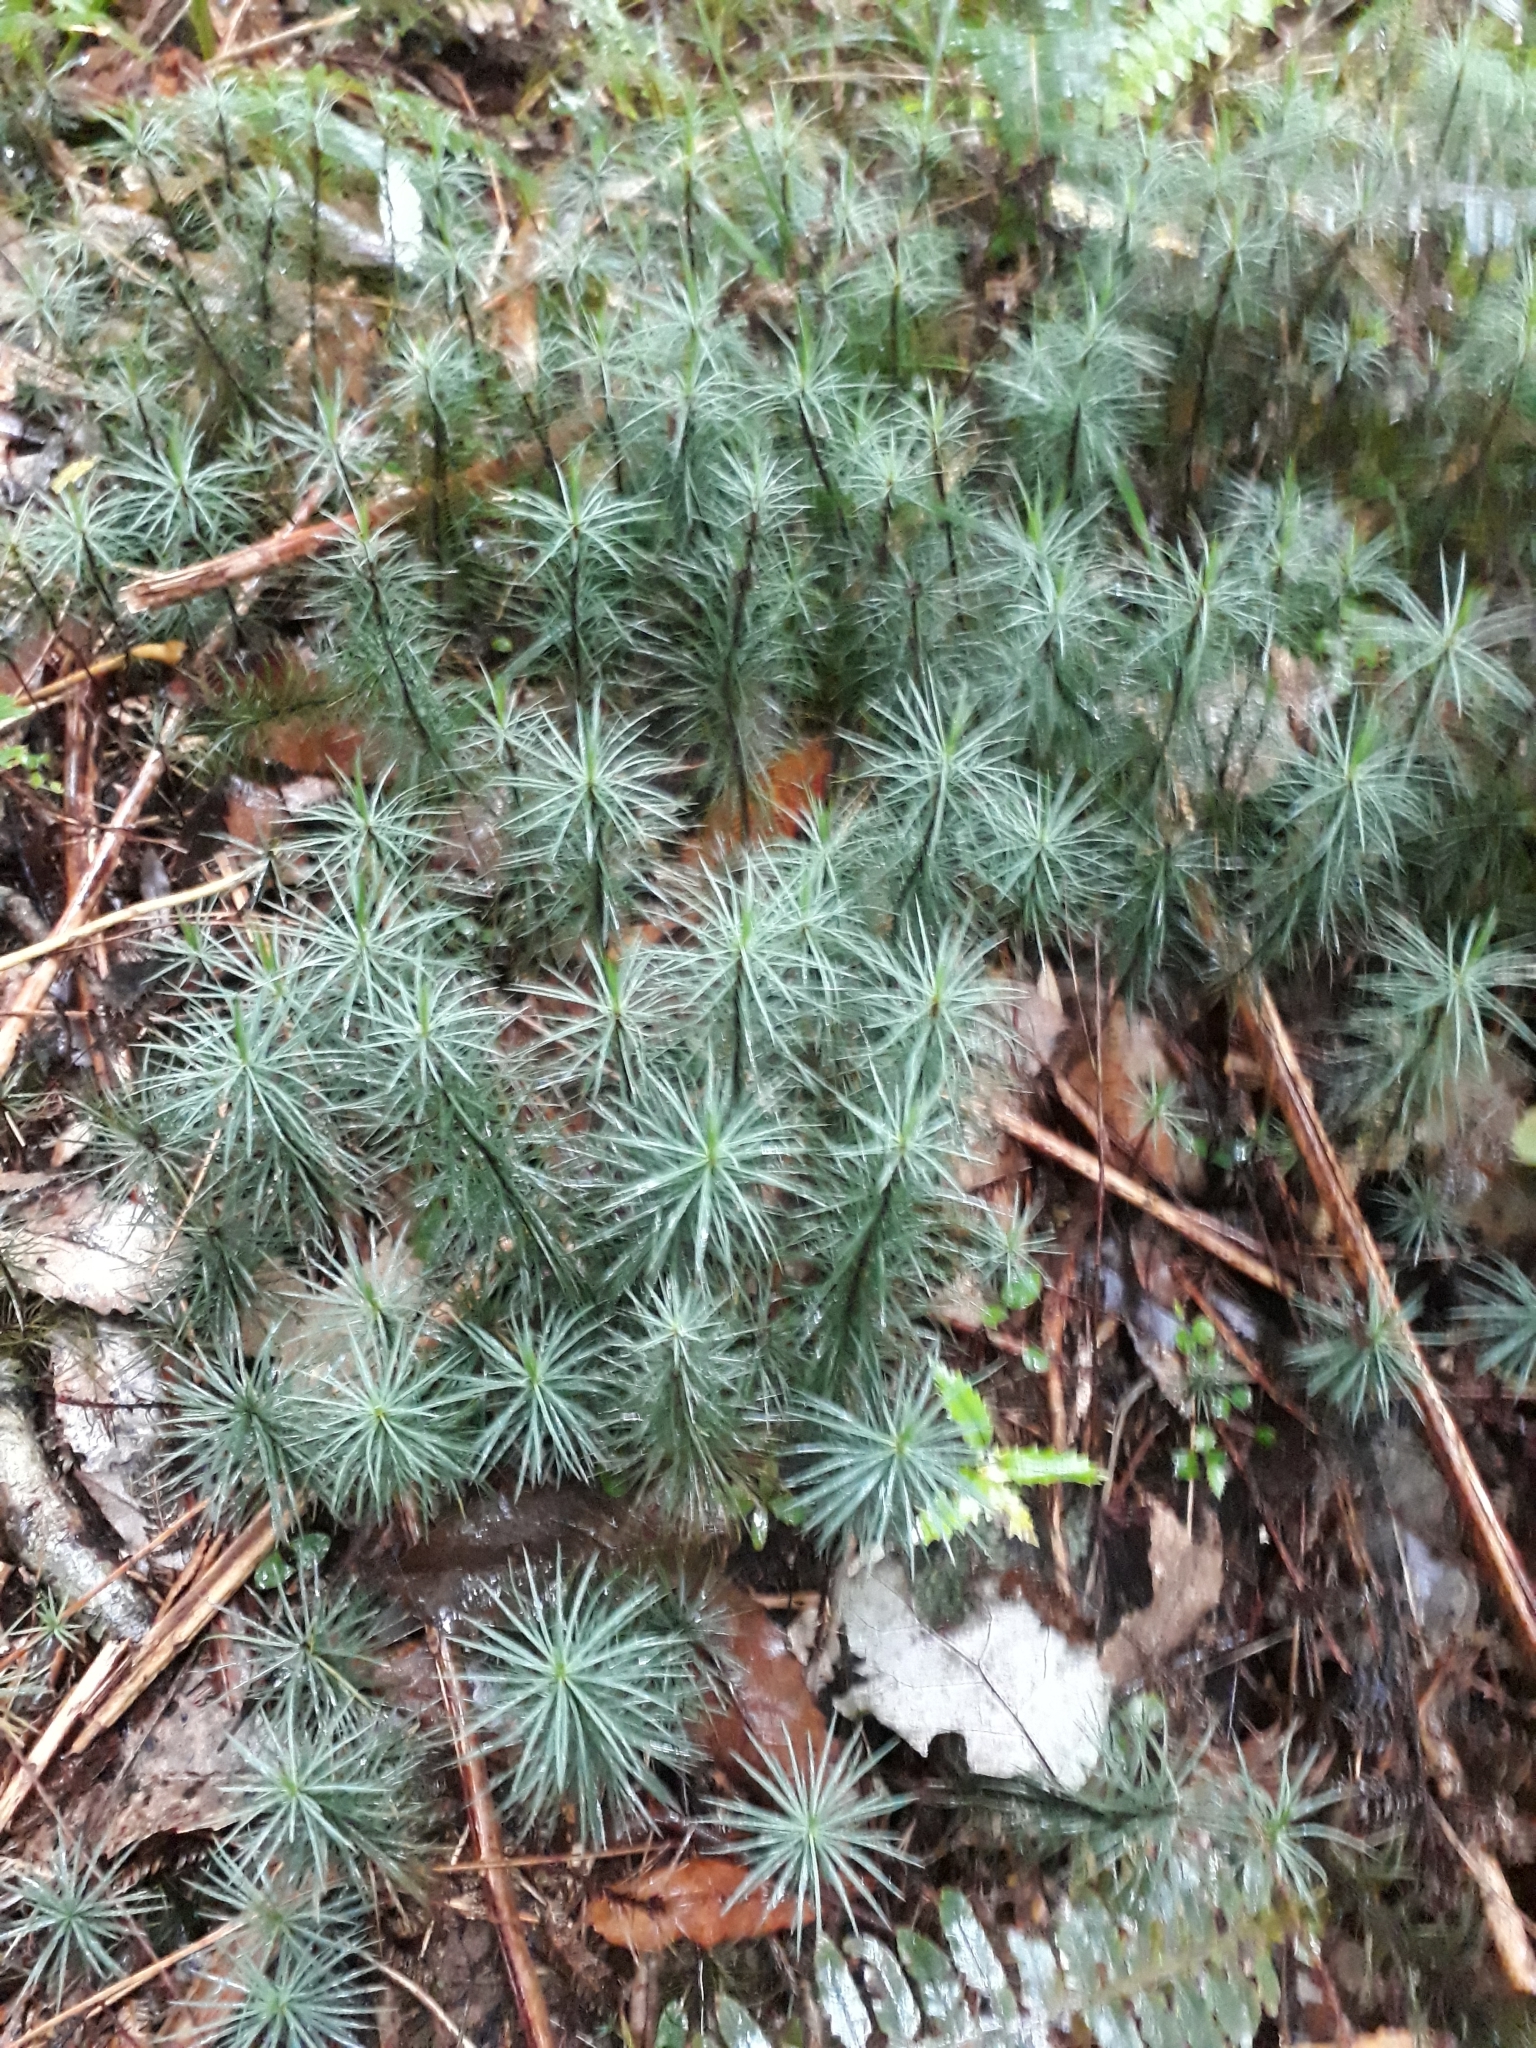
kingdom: Plantae
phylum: Bryophyta
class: Polytrichopsida
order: Polytrichales
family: Polytrichaceae
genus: Dawsonia
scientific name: Dawsonia superba
